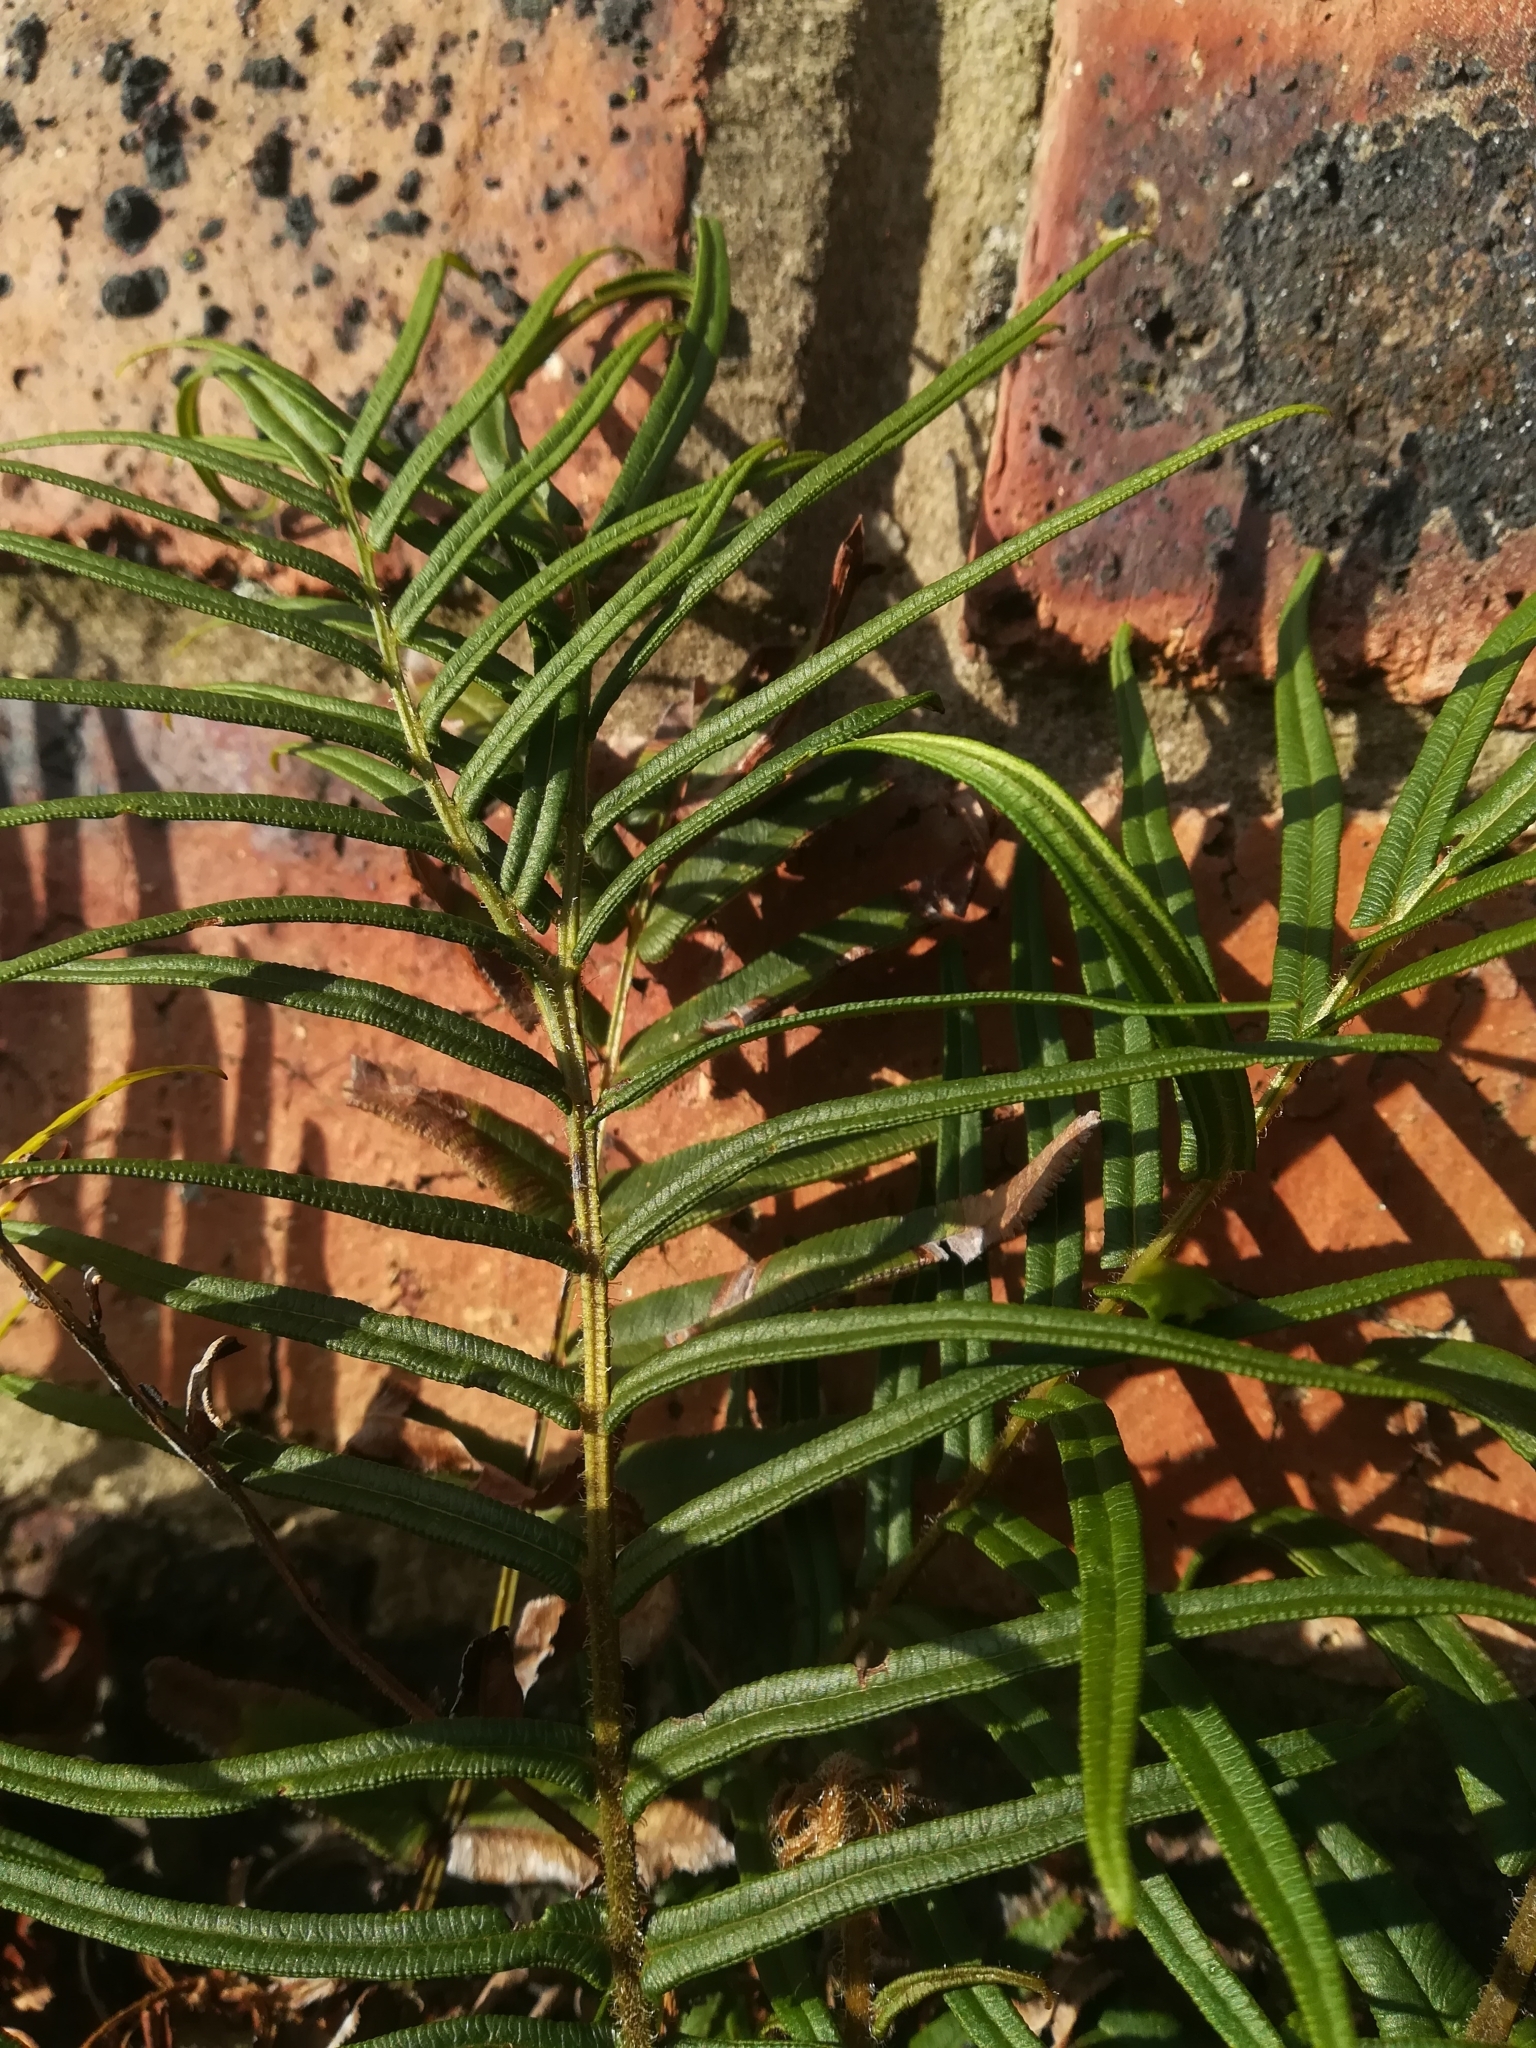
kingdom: Plantae
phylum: Tracheophyta
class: Polypodiopsida
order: Polypodiales
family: Pteridaceae
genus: Pteris
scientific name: Pteris vittata
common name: Ladder brake
